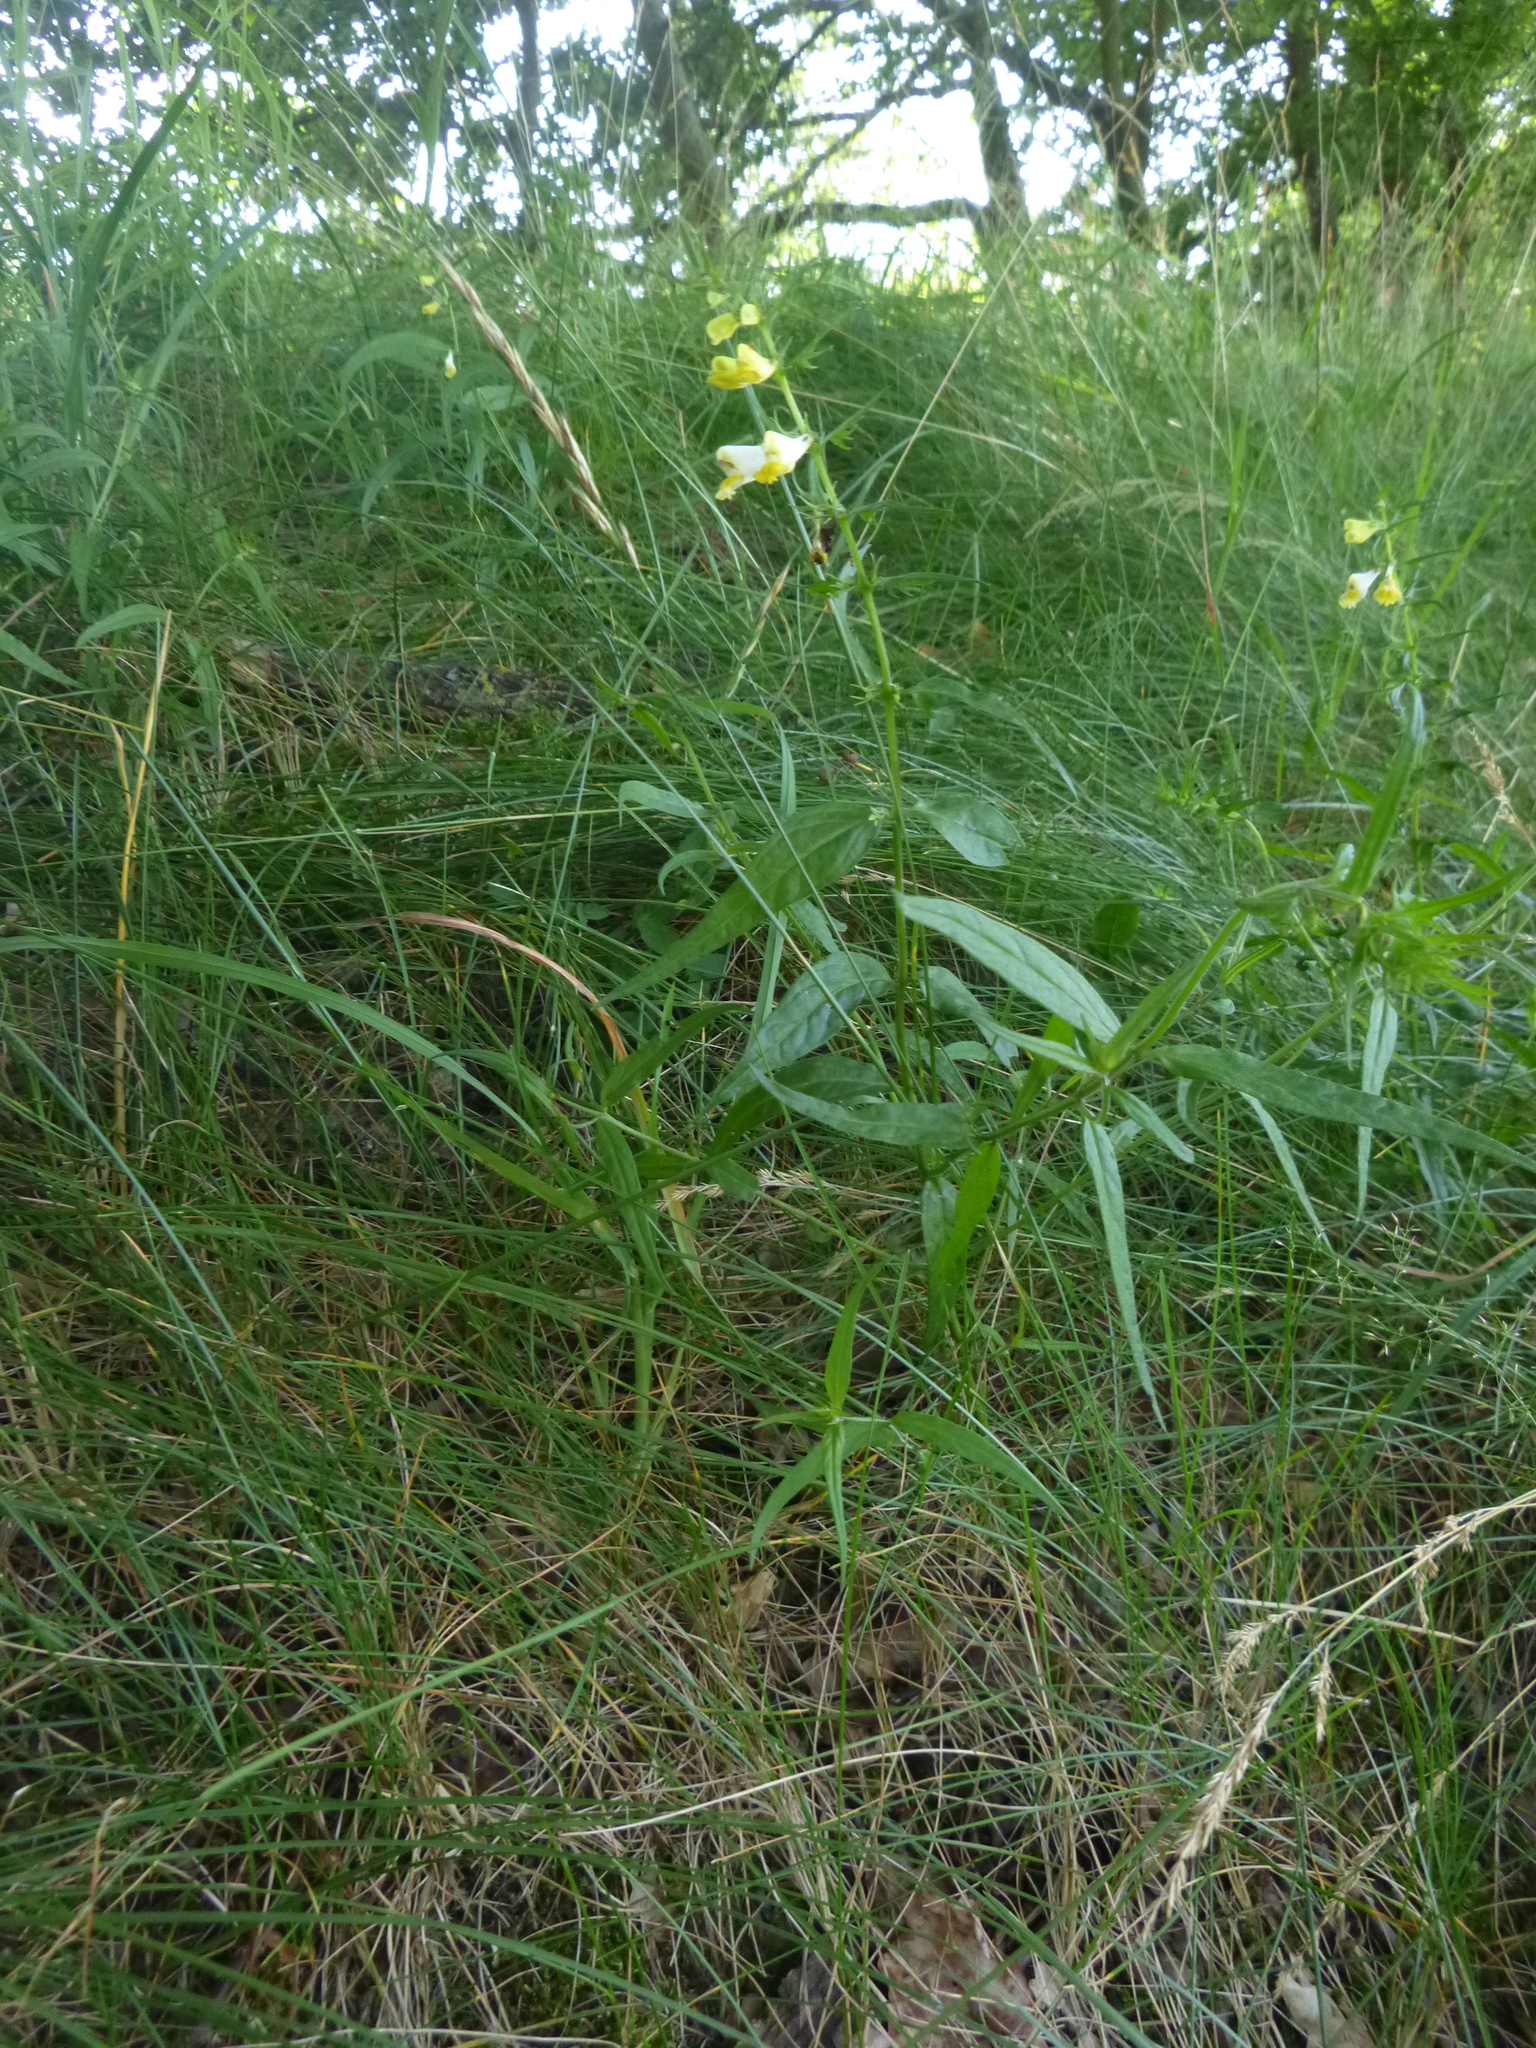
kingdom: Plantae
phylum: Tracheophyta
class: Magnoliopsida
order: Lamiales
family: Orobanchaceae
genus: Melampyrum
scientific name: Melampyrum pratense
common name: Common cow-wheat
